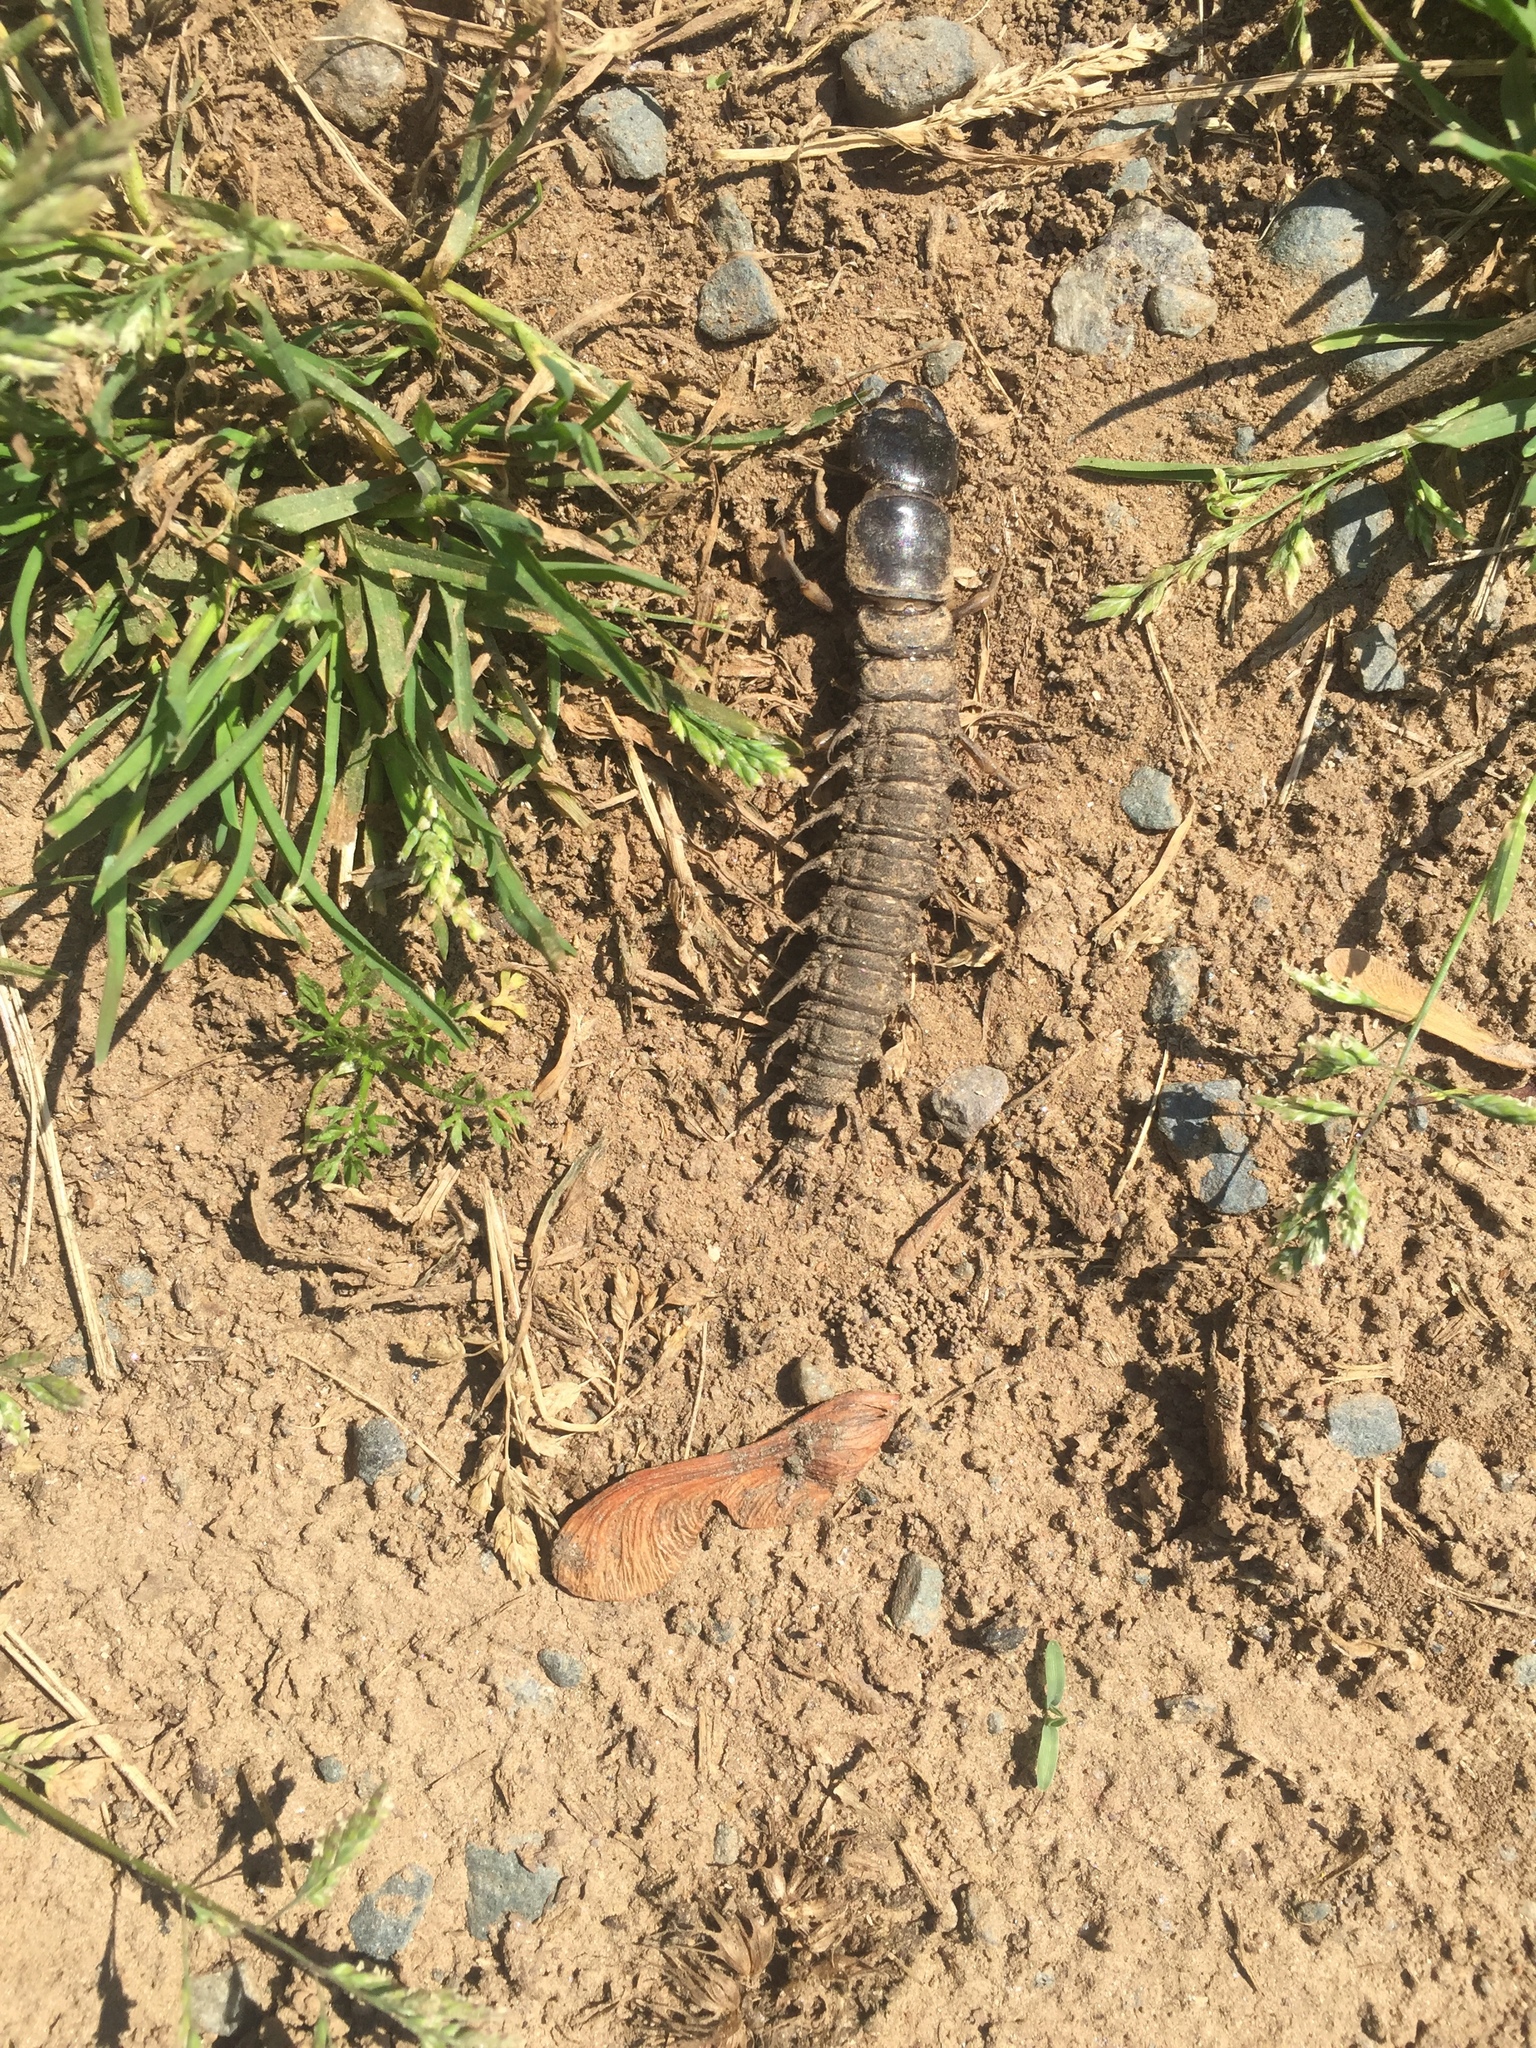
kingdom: Animalia
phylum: Arthropoda
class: Insecta
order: Megaloptera
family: Corydalidae
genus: Corydalus
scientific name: Corydalus cornutus
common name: Dobsonfly
